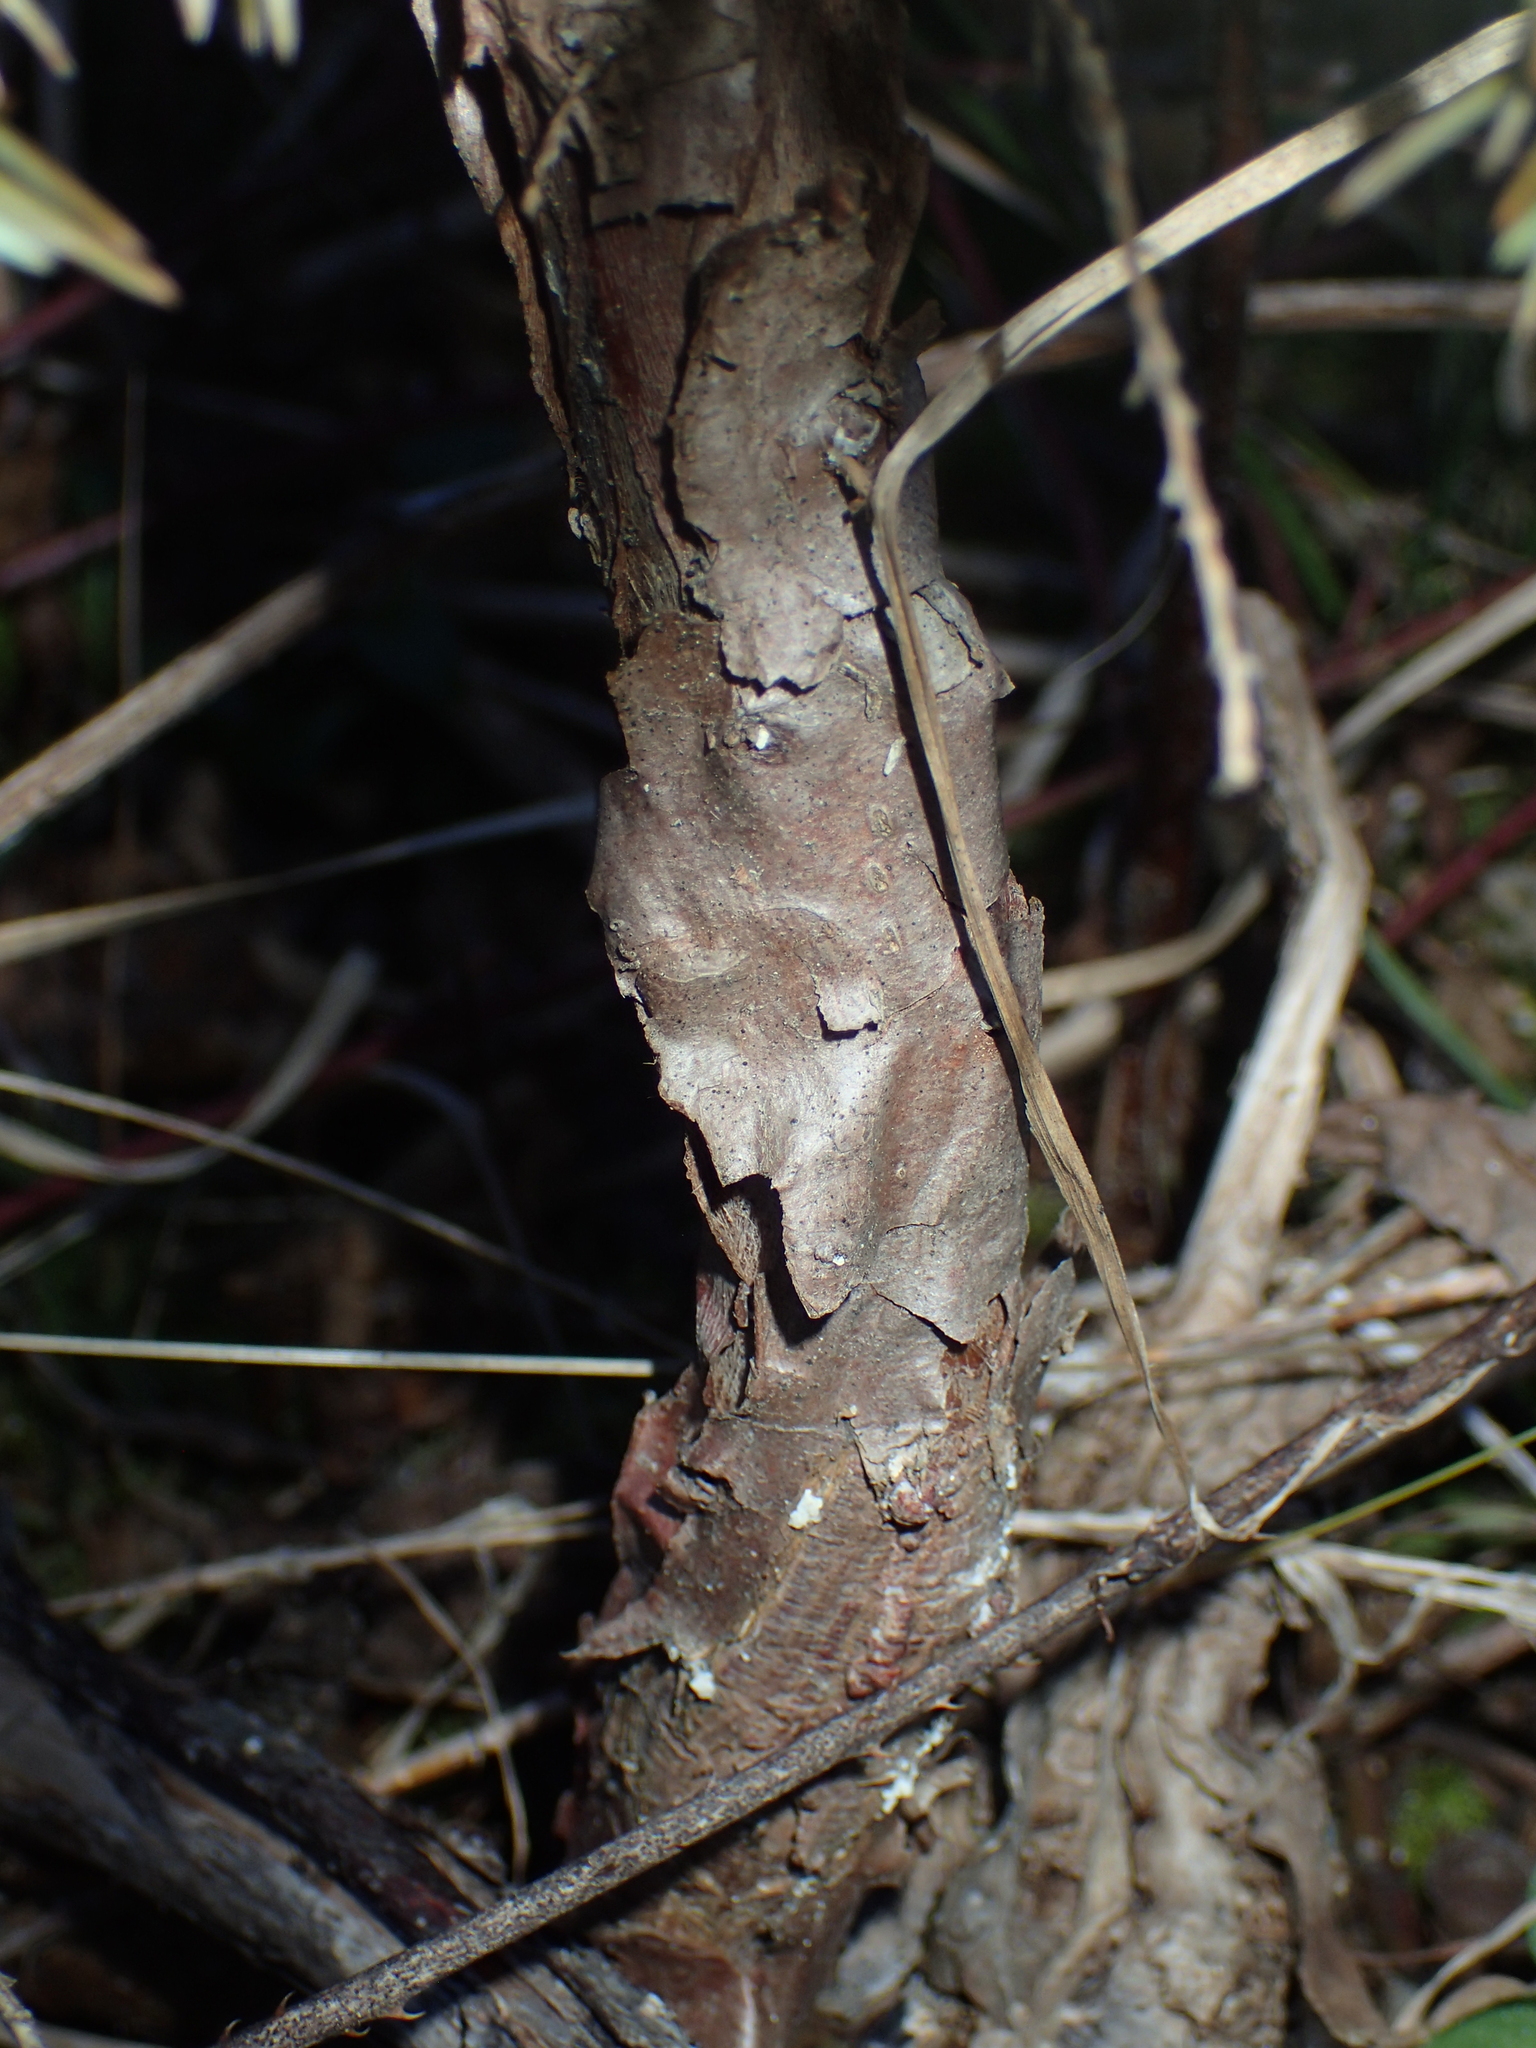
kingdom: Plantae
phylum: Tracheophyta
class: Pinopsida
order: Pinales
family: Cupressaceae
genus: Juniperus
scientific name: Juniperus virginiana
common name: Red juniper
